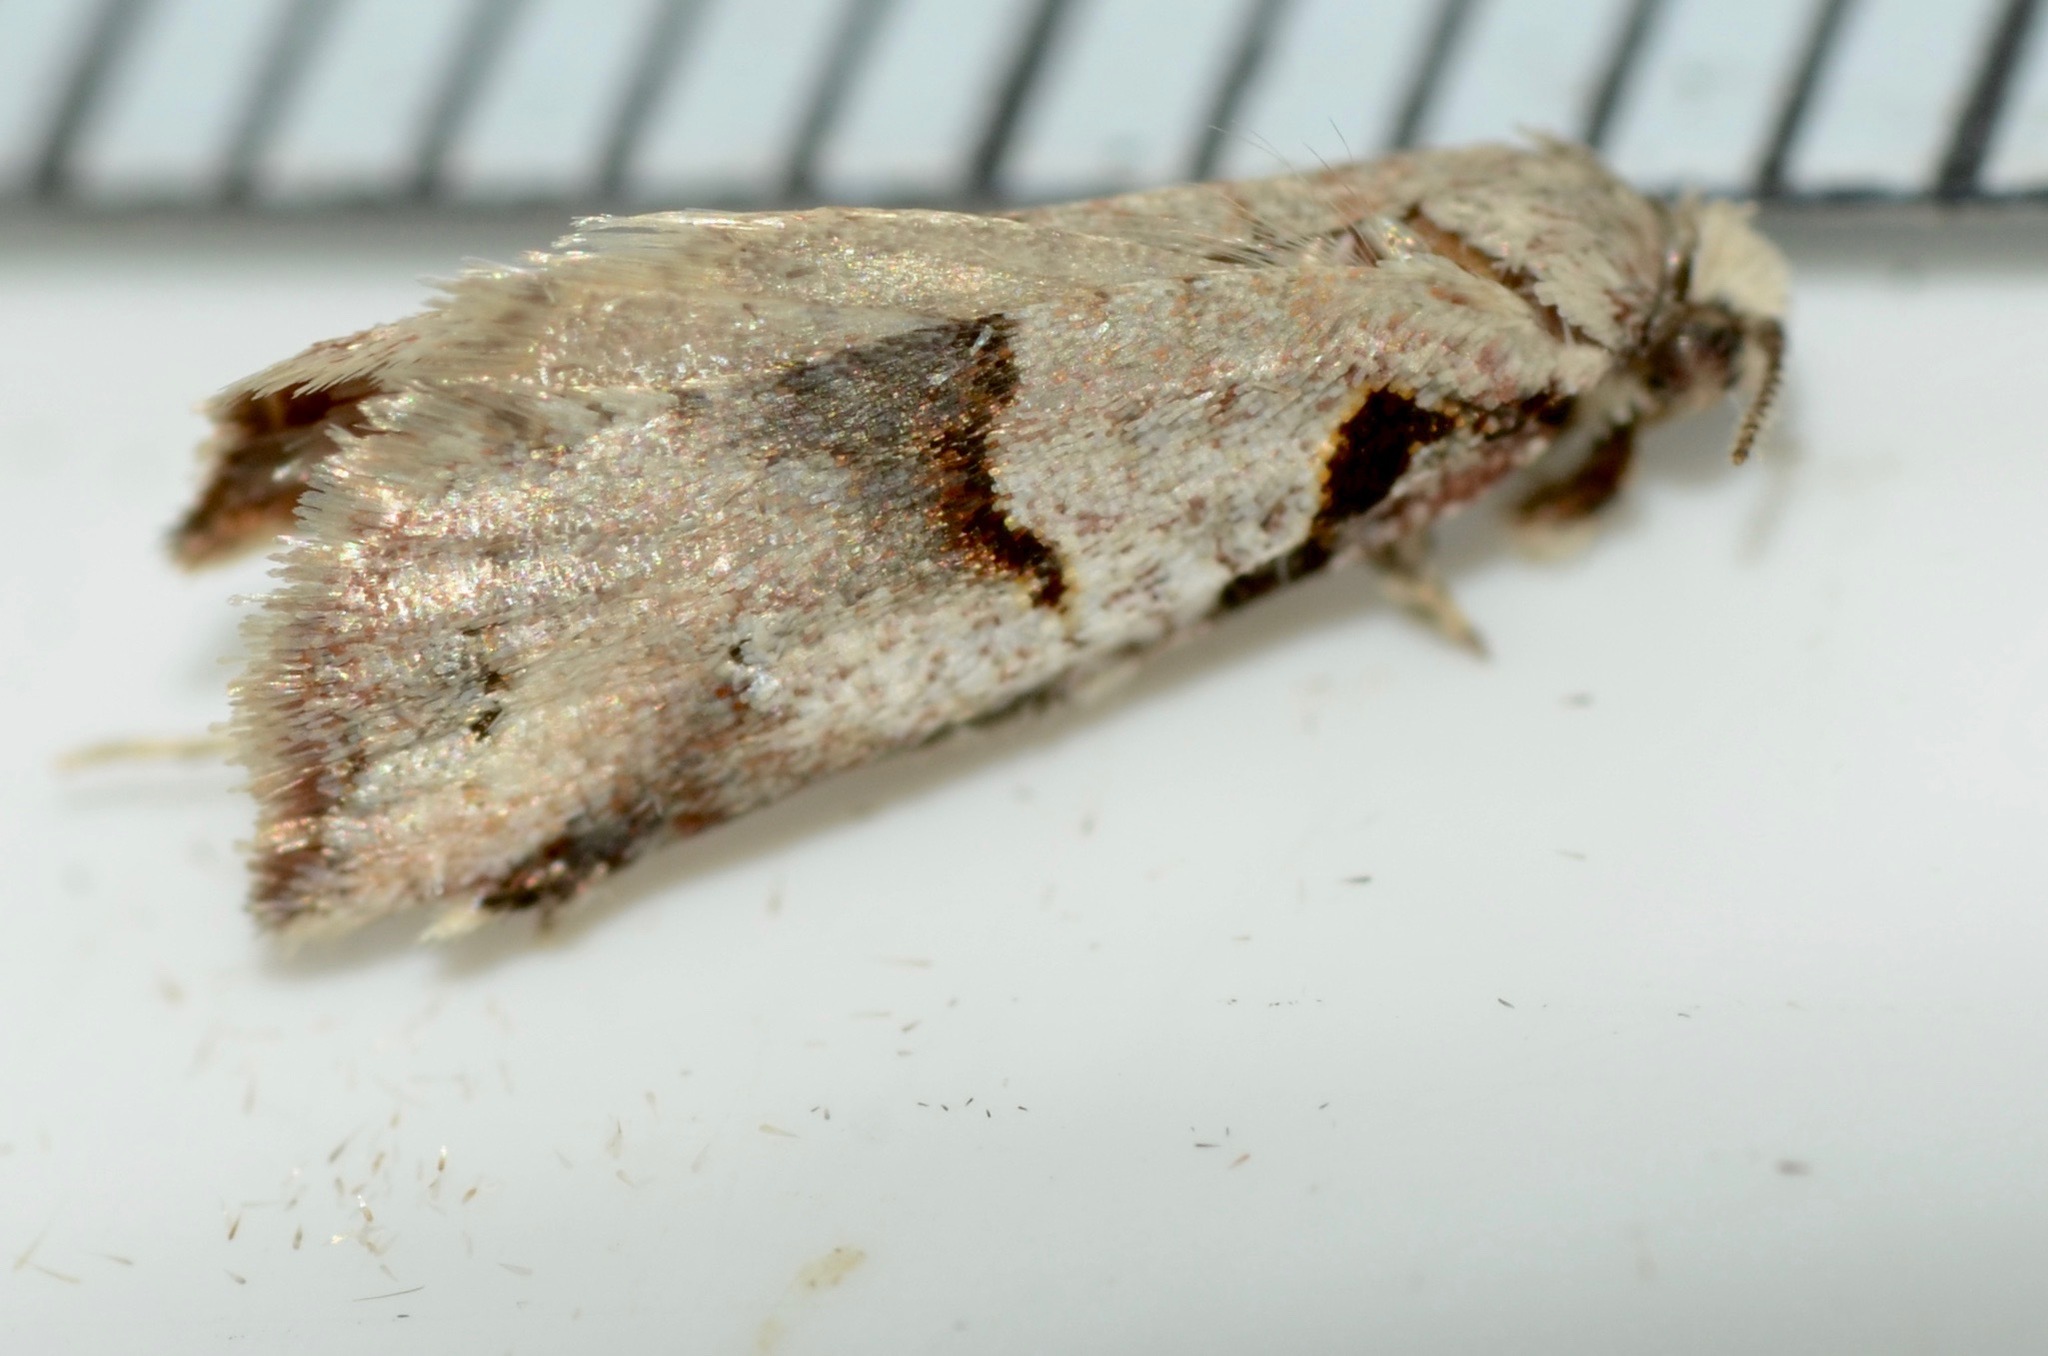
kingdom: Animalia
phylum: Arthropoda
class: Insecta
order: Lepidoptera
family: Tortricidae
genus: Harmologa
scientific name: Harmologa amplexana
